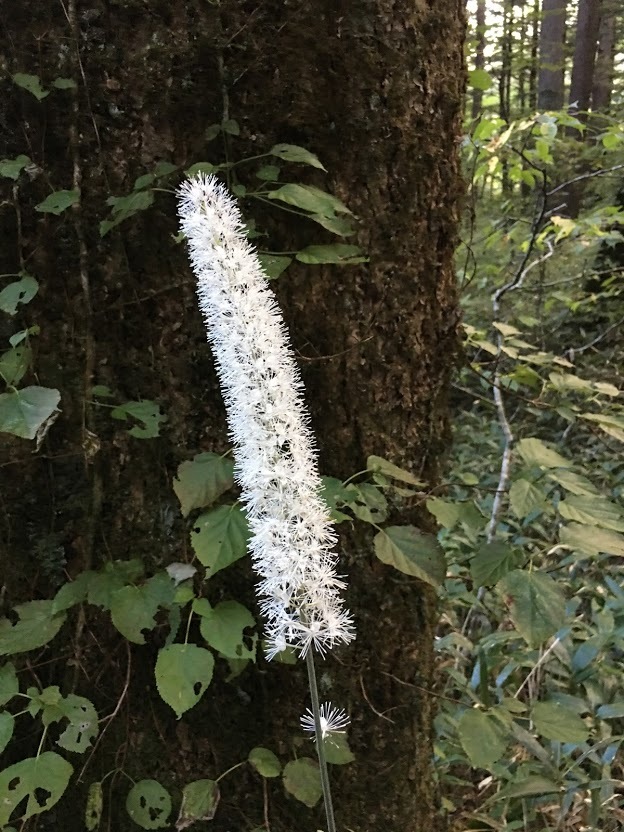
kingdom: Plantae
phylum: Tracheophyta
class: Magnoliopsida
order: Ranunculales
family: Ranunculaceae
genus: Actaea
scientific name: Actaea simplex
